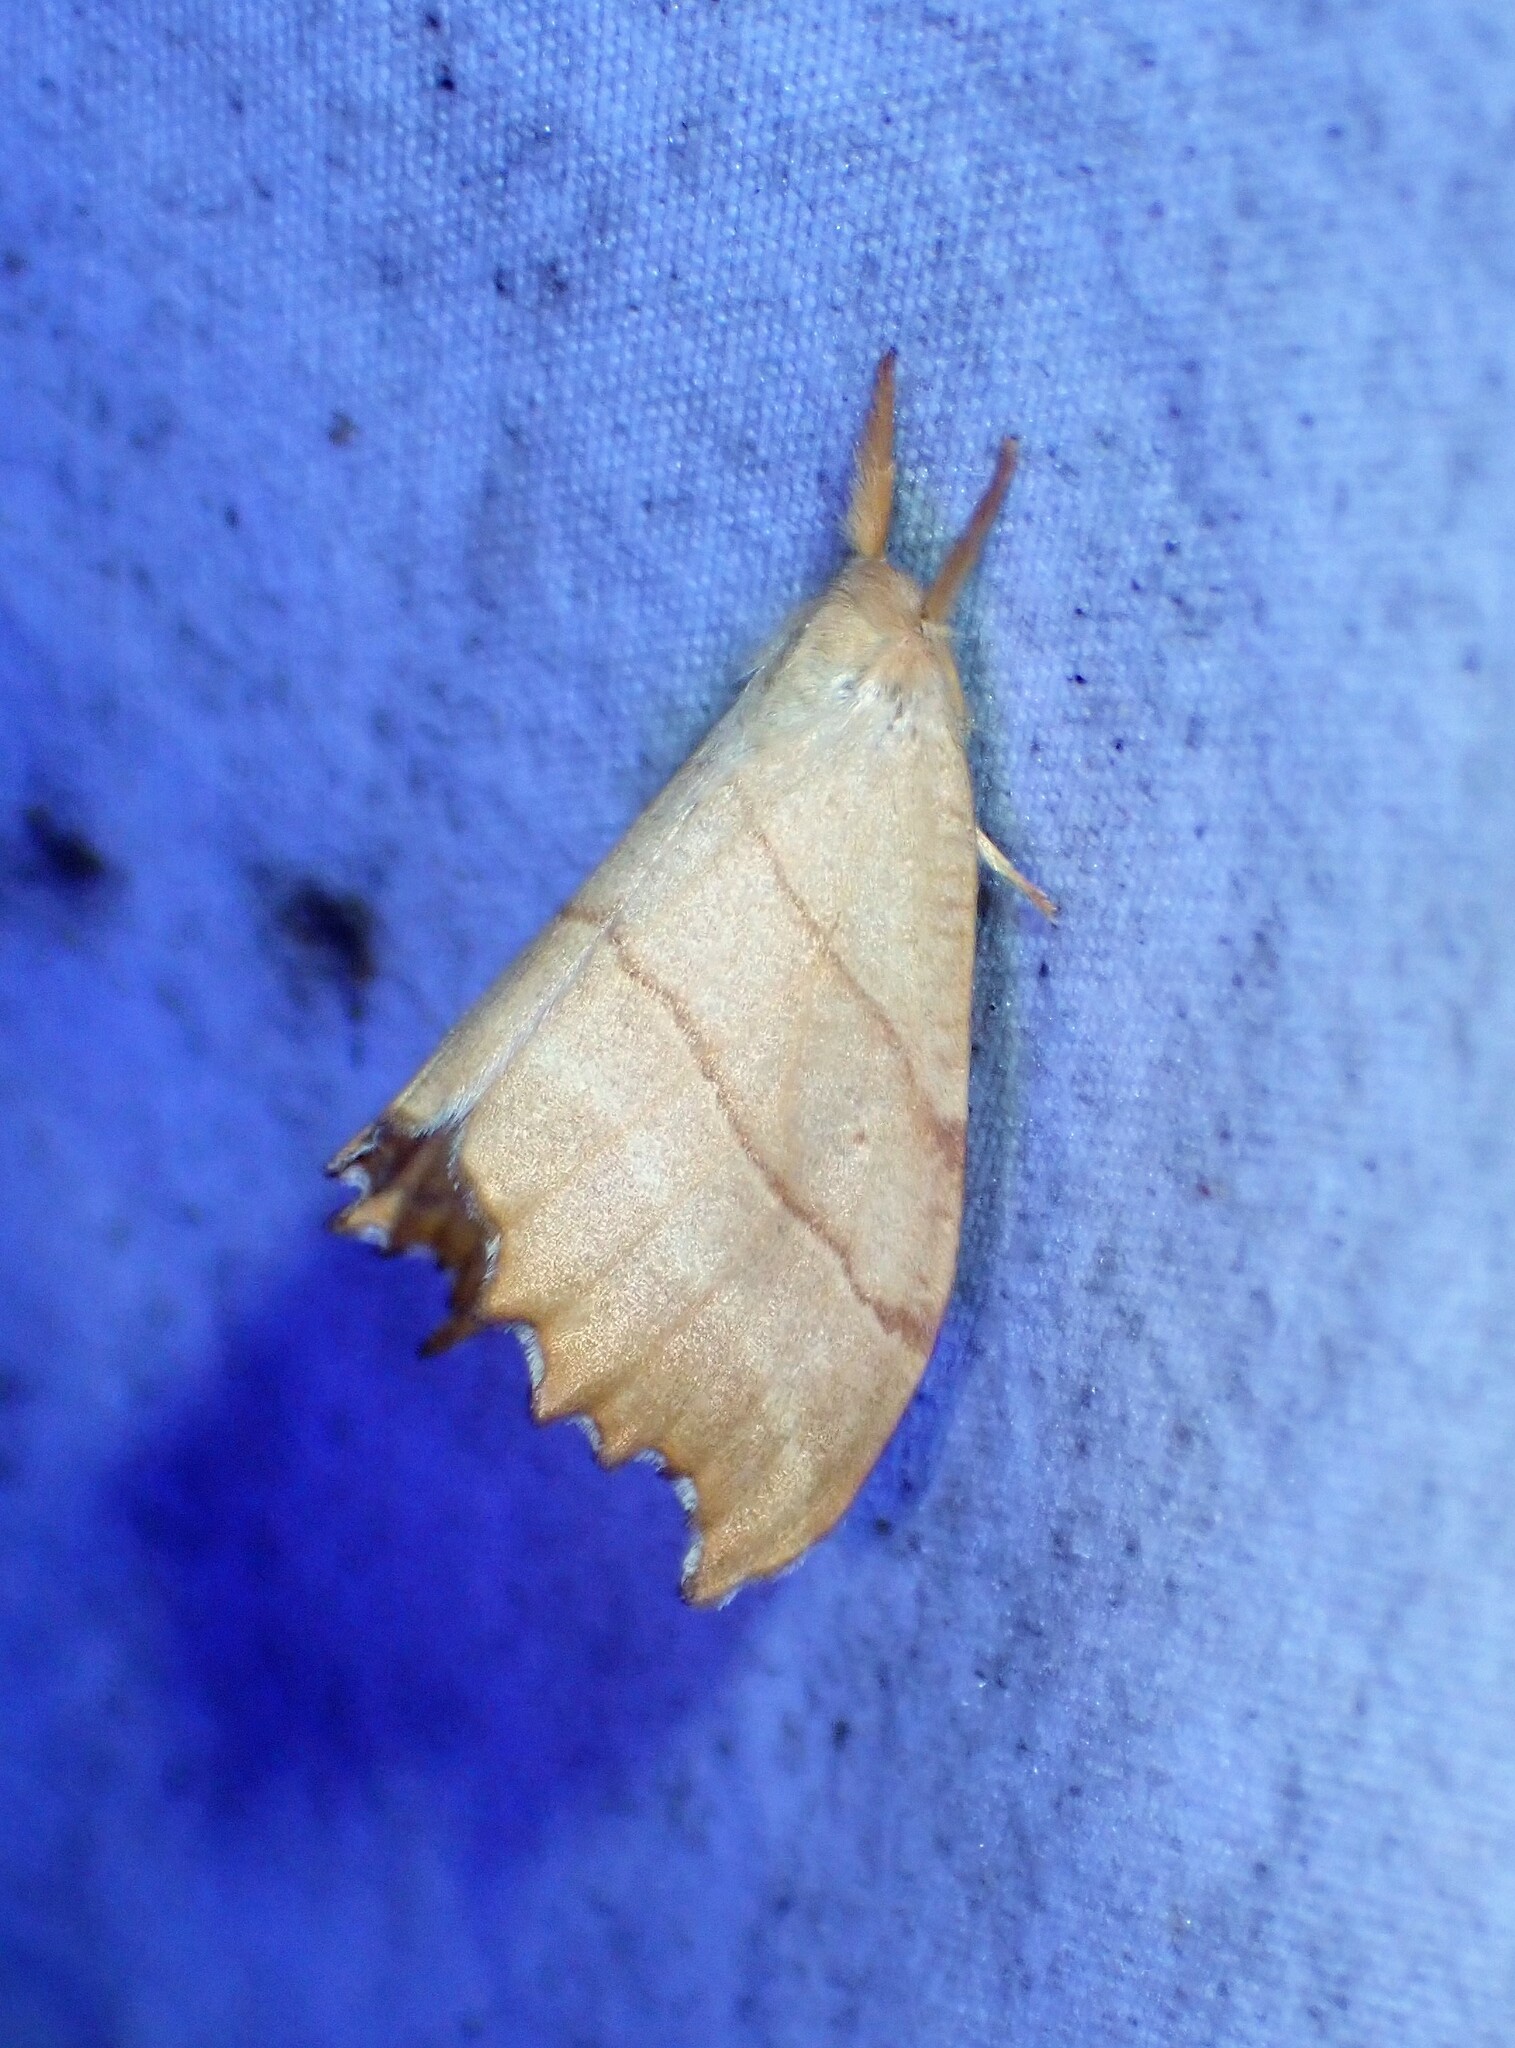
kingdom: Animalia
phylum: Arthropoda
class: Insecta
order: Lepidoptera
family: Drepanidae
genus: Falcaria
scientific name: Falcaria bilineata
